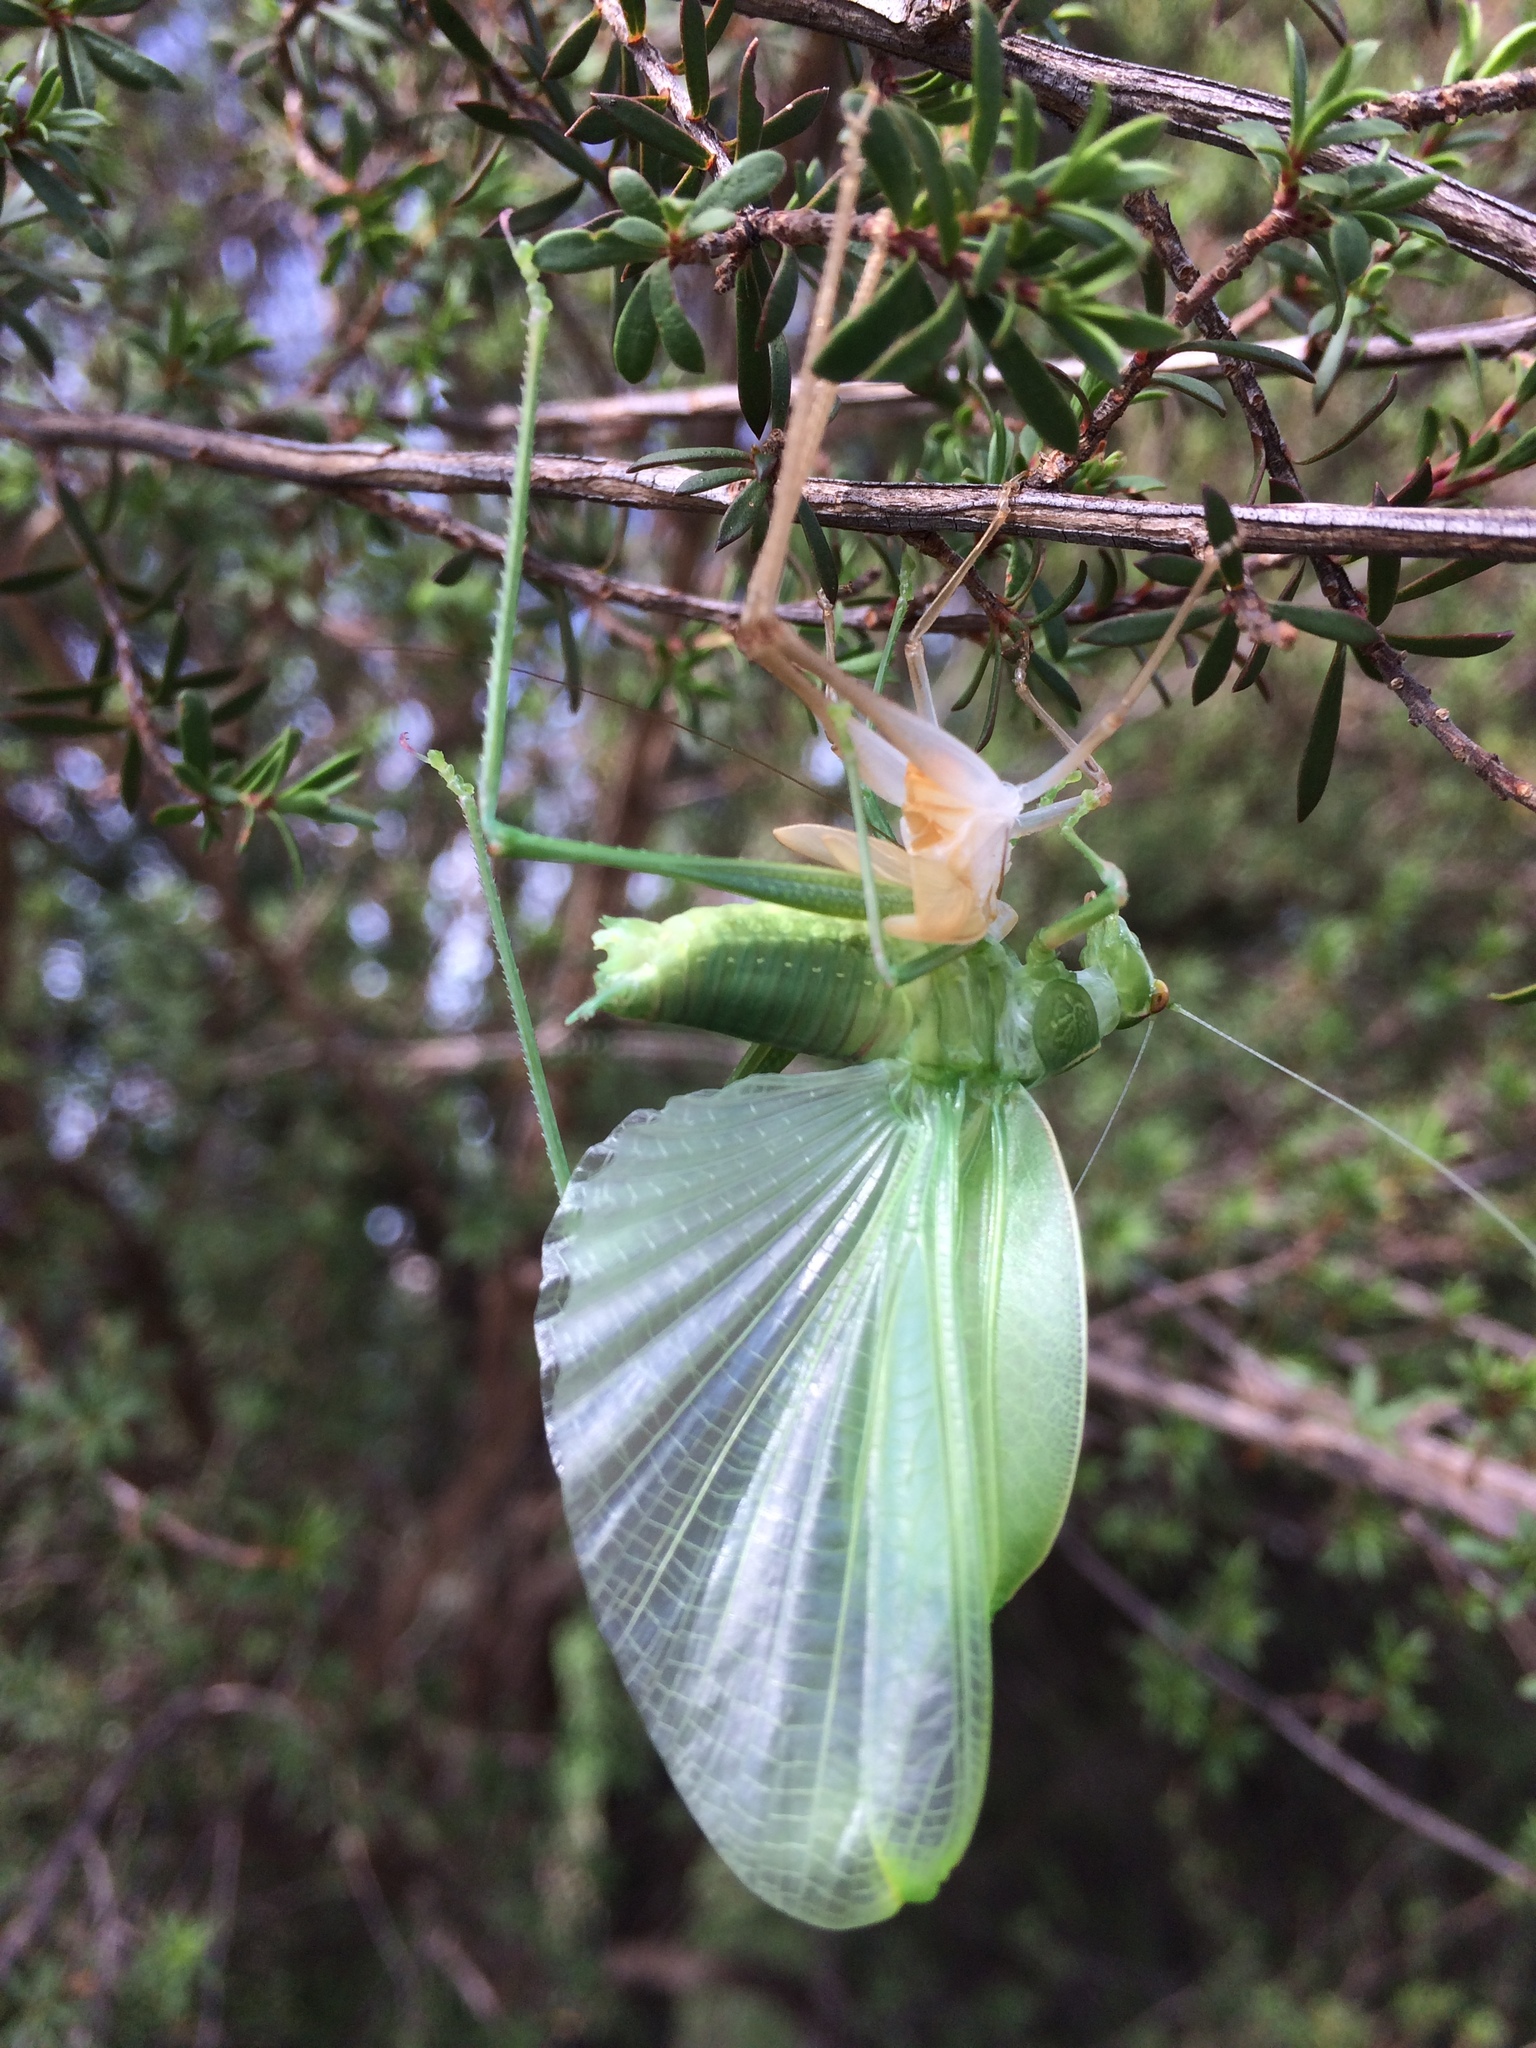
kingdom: Animalia
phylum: Arthropoda
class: Insecta
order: Orthoptera
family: Tettigoniidae
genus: Caedicia
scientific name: Caedicia simplex
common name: Common garden katydid
